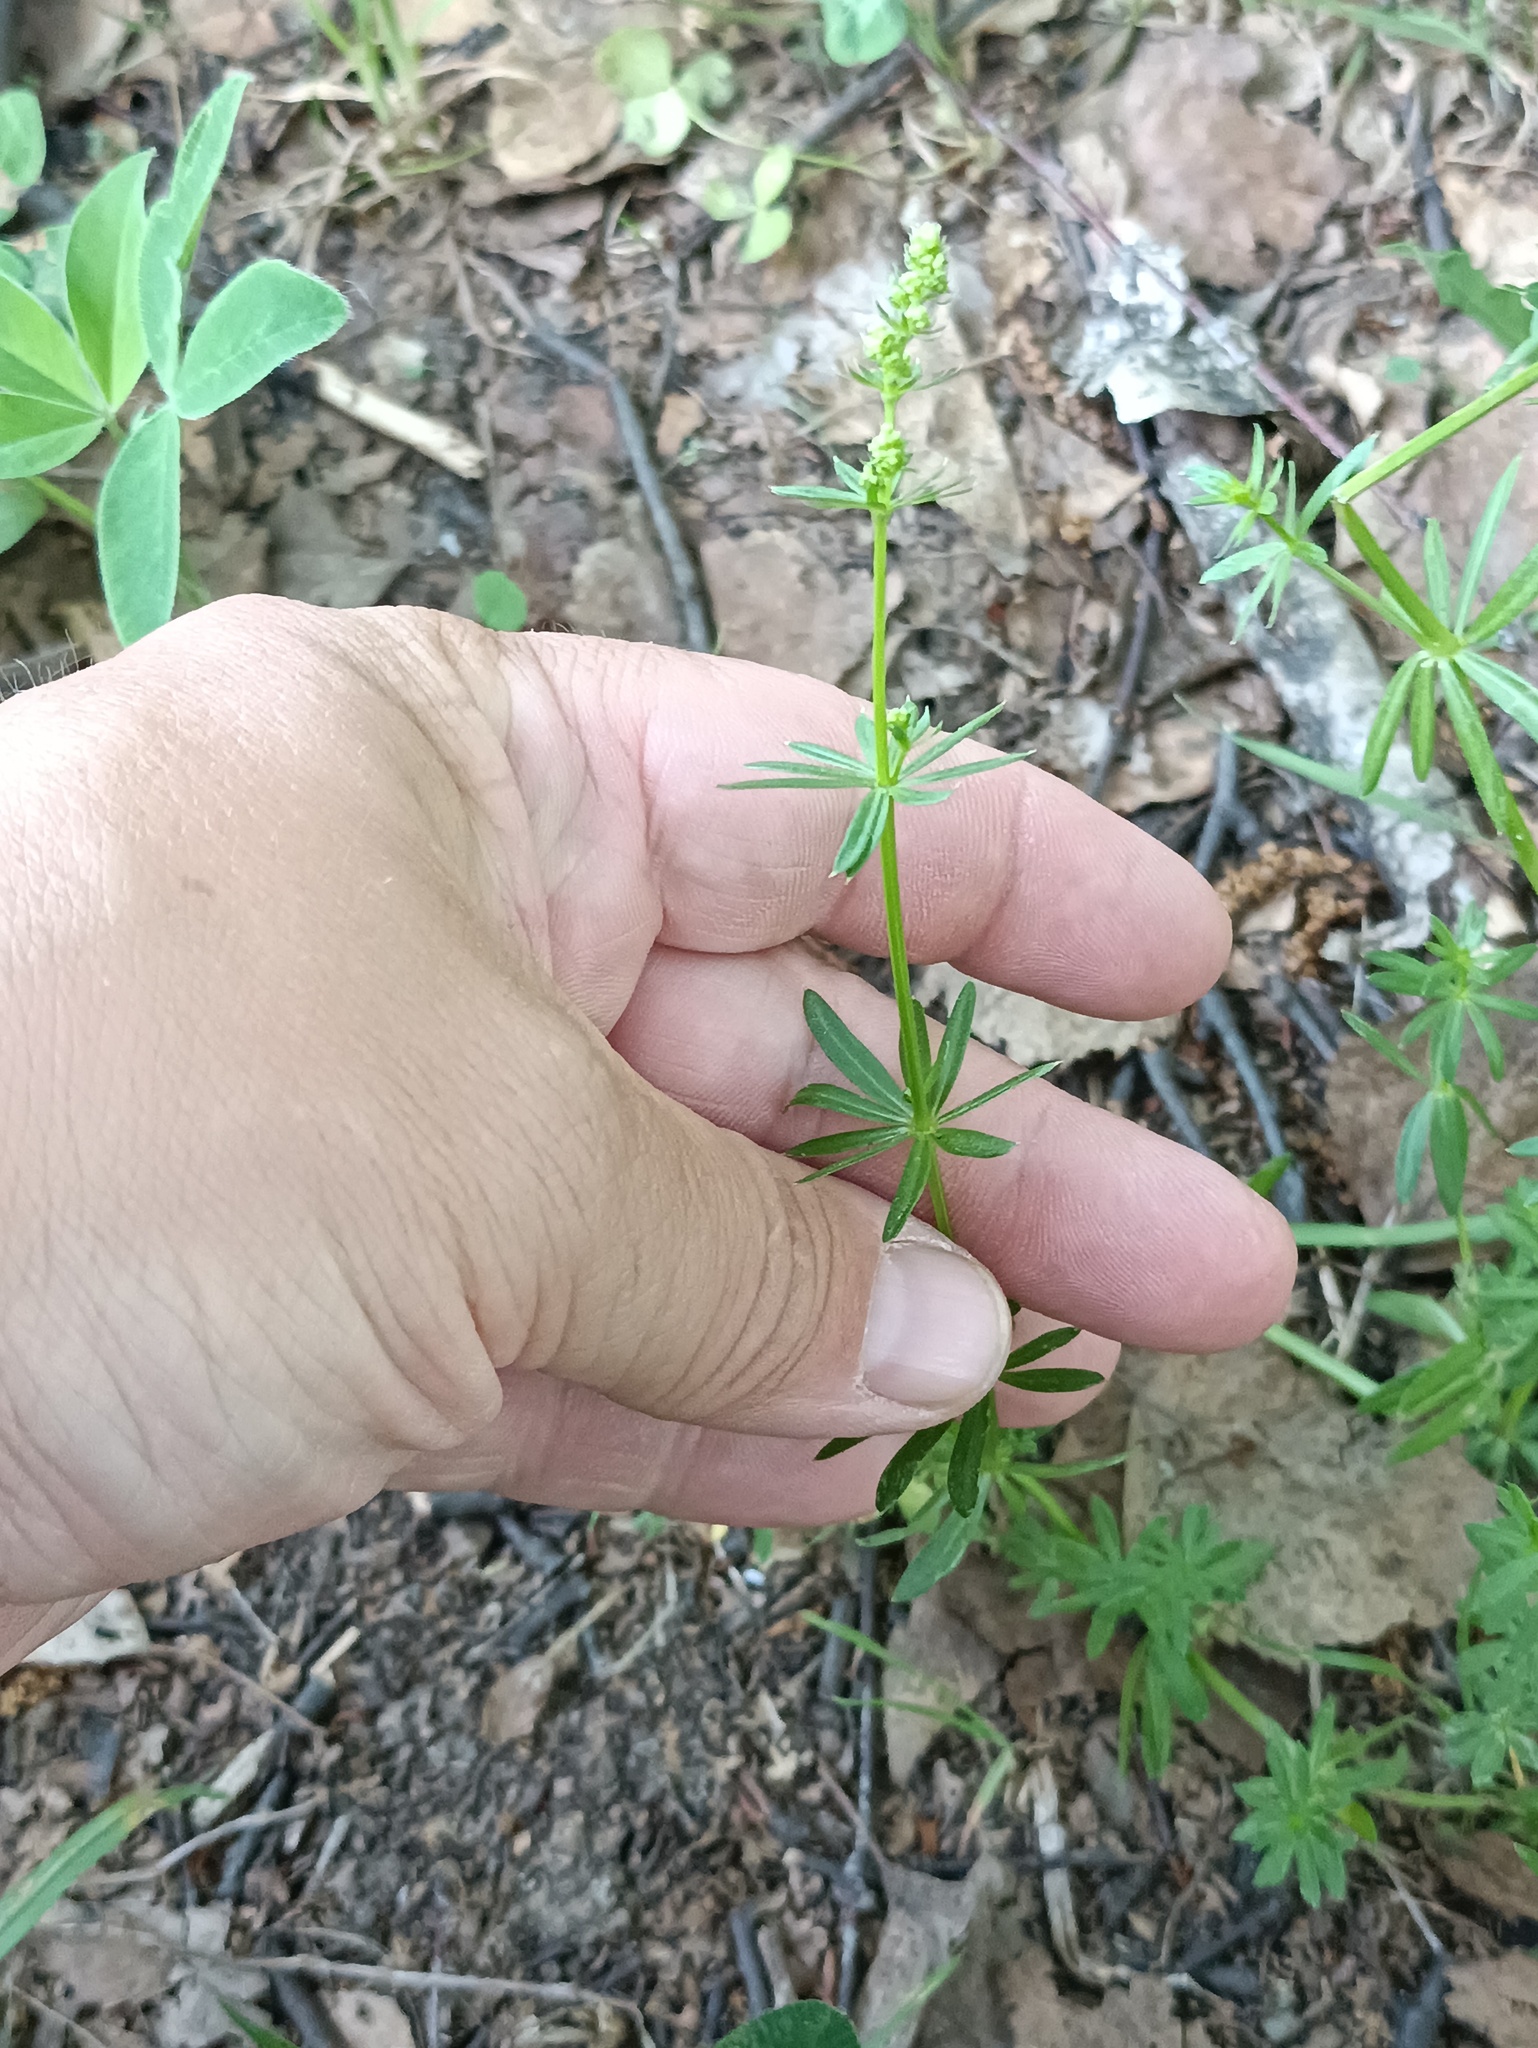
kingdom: Plantae
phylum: Tracheophyta
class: Magnoliopsida
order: Gentianales
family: Rubiaceae
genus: Galium
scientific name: Galium mollugo
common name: Hedge bedstraw
